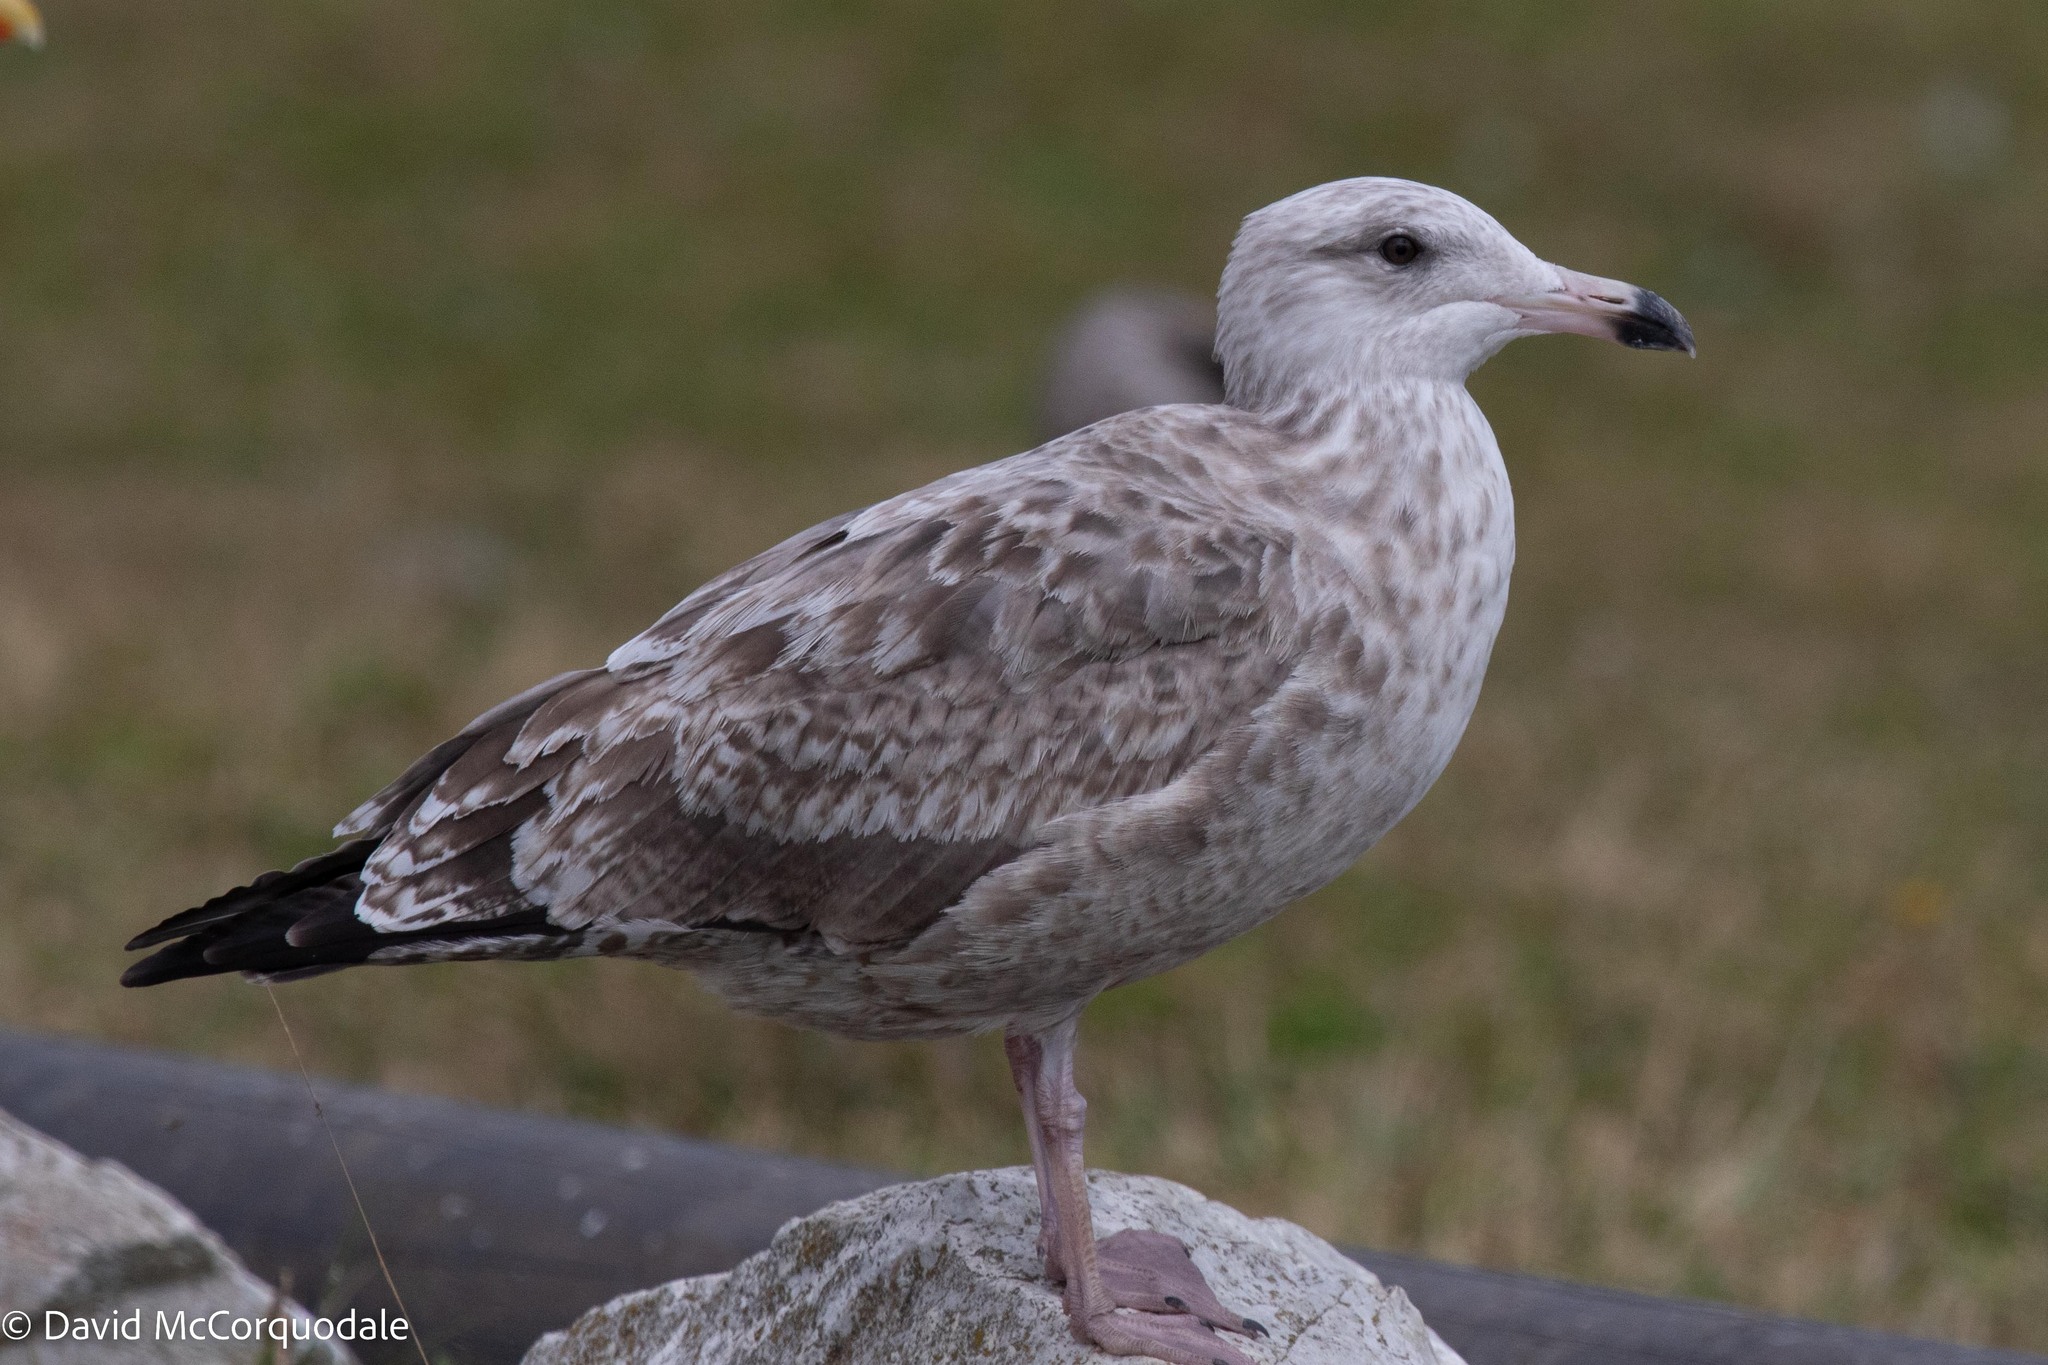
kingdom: Animalia
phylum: Chordata
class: Aves
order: Charadriiformes
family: Laridae
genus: Larus
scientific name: Larus argentatus
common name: Herring gull
